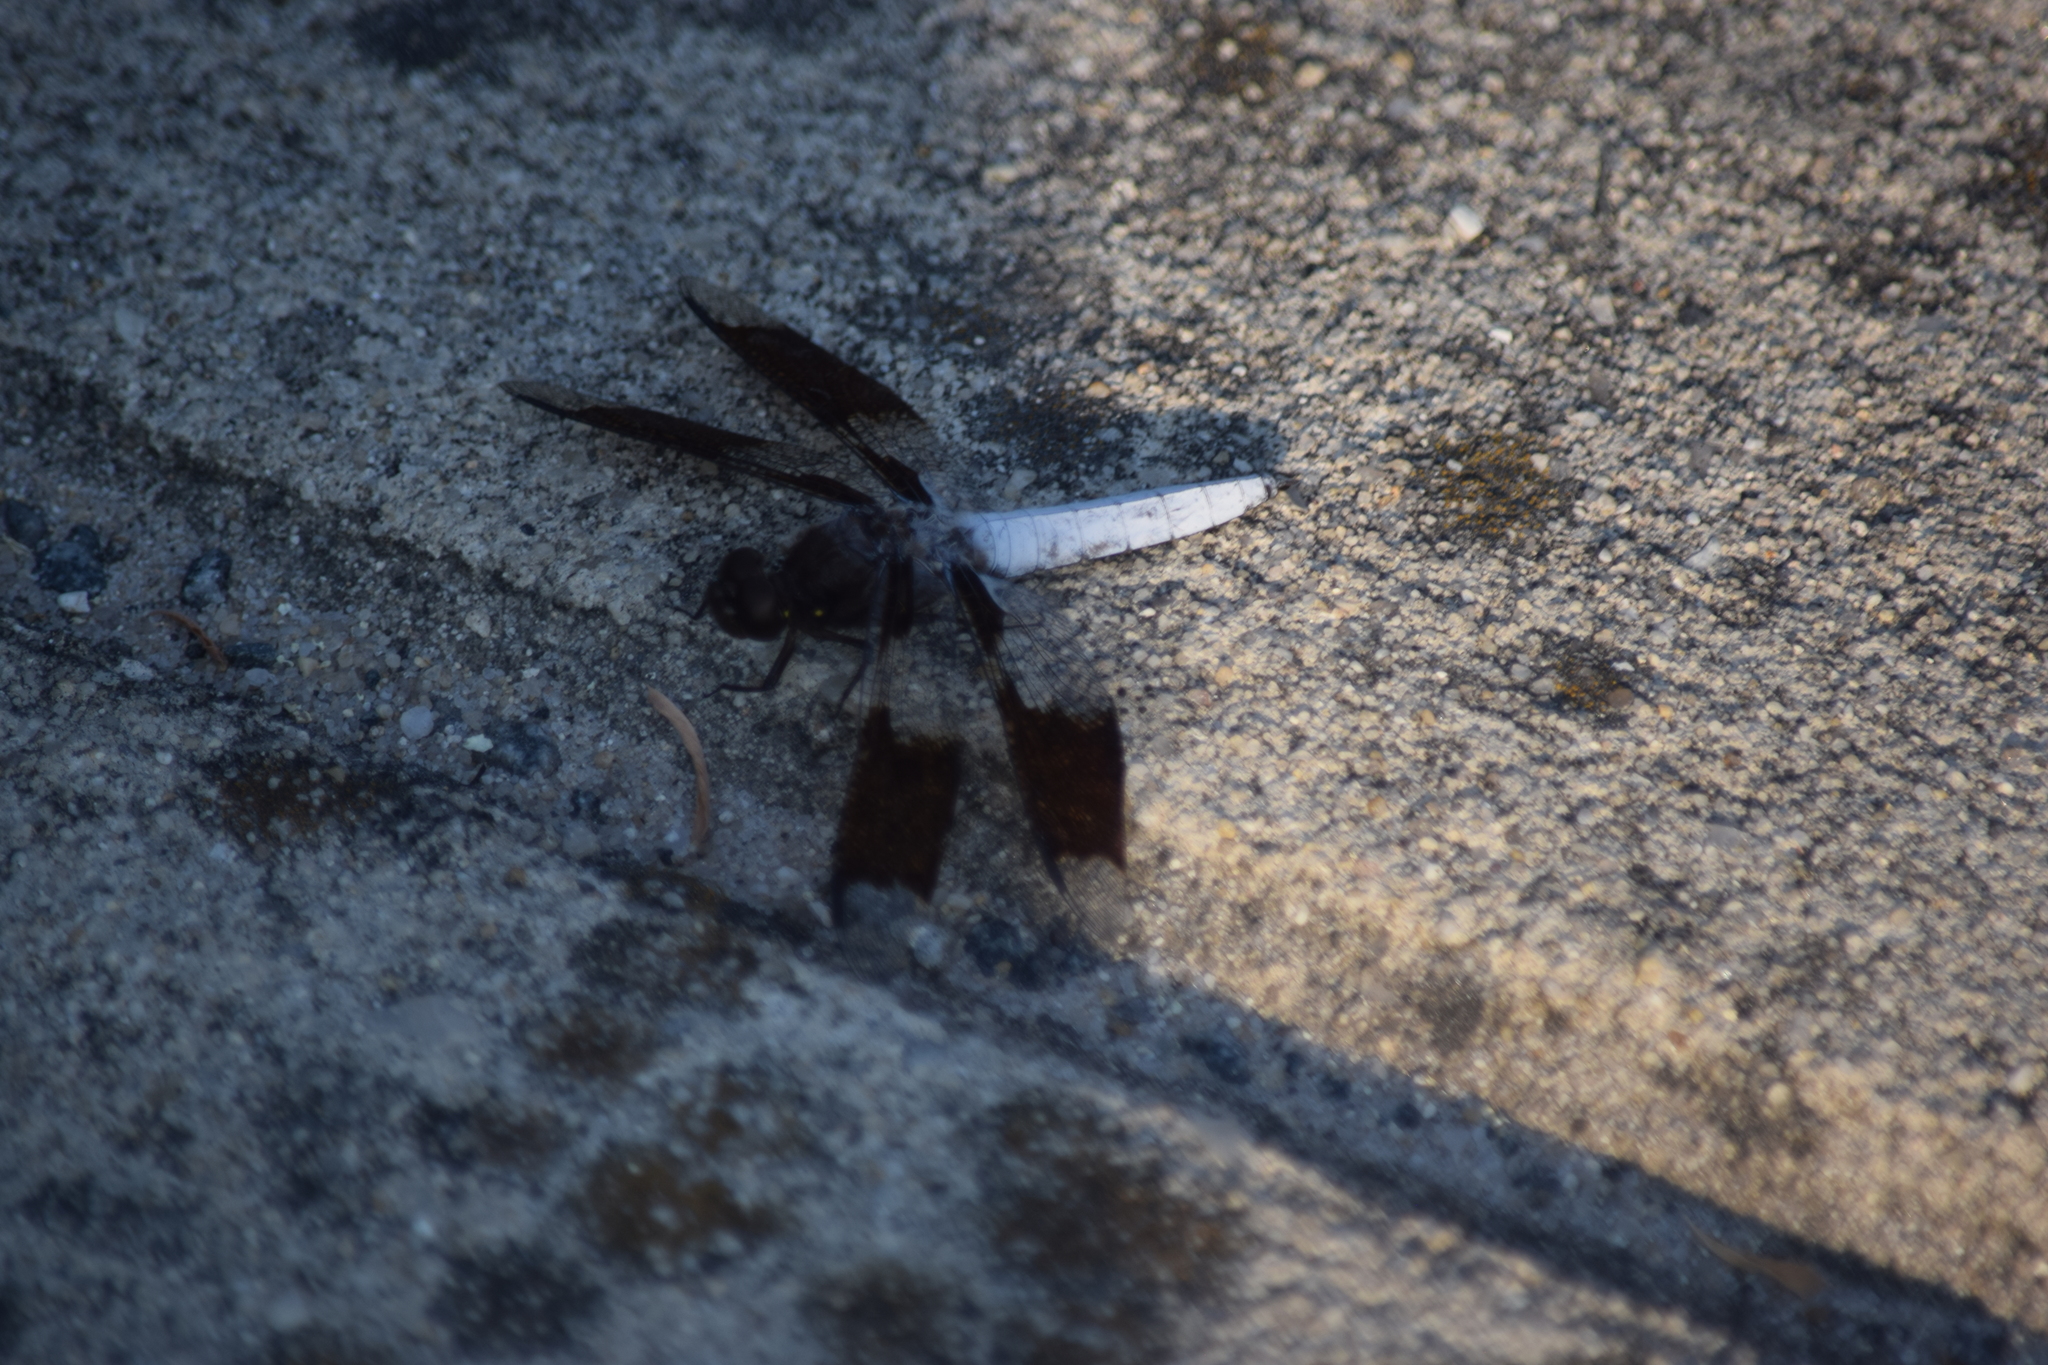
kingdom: Animalia
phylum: Arthropoda
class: Insecta
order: Odonata
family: Libellulidae
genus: Plathemis
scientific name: Plathemis lydia
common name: Common whitetail
